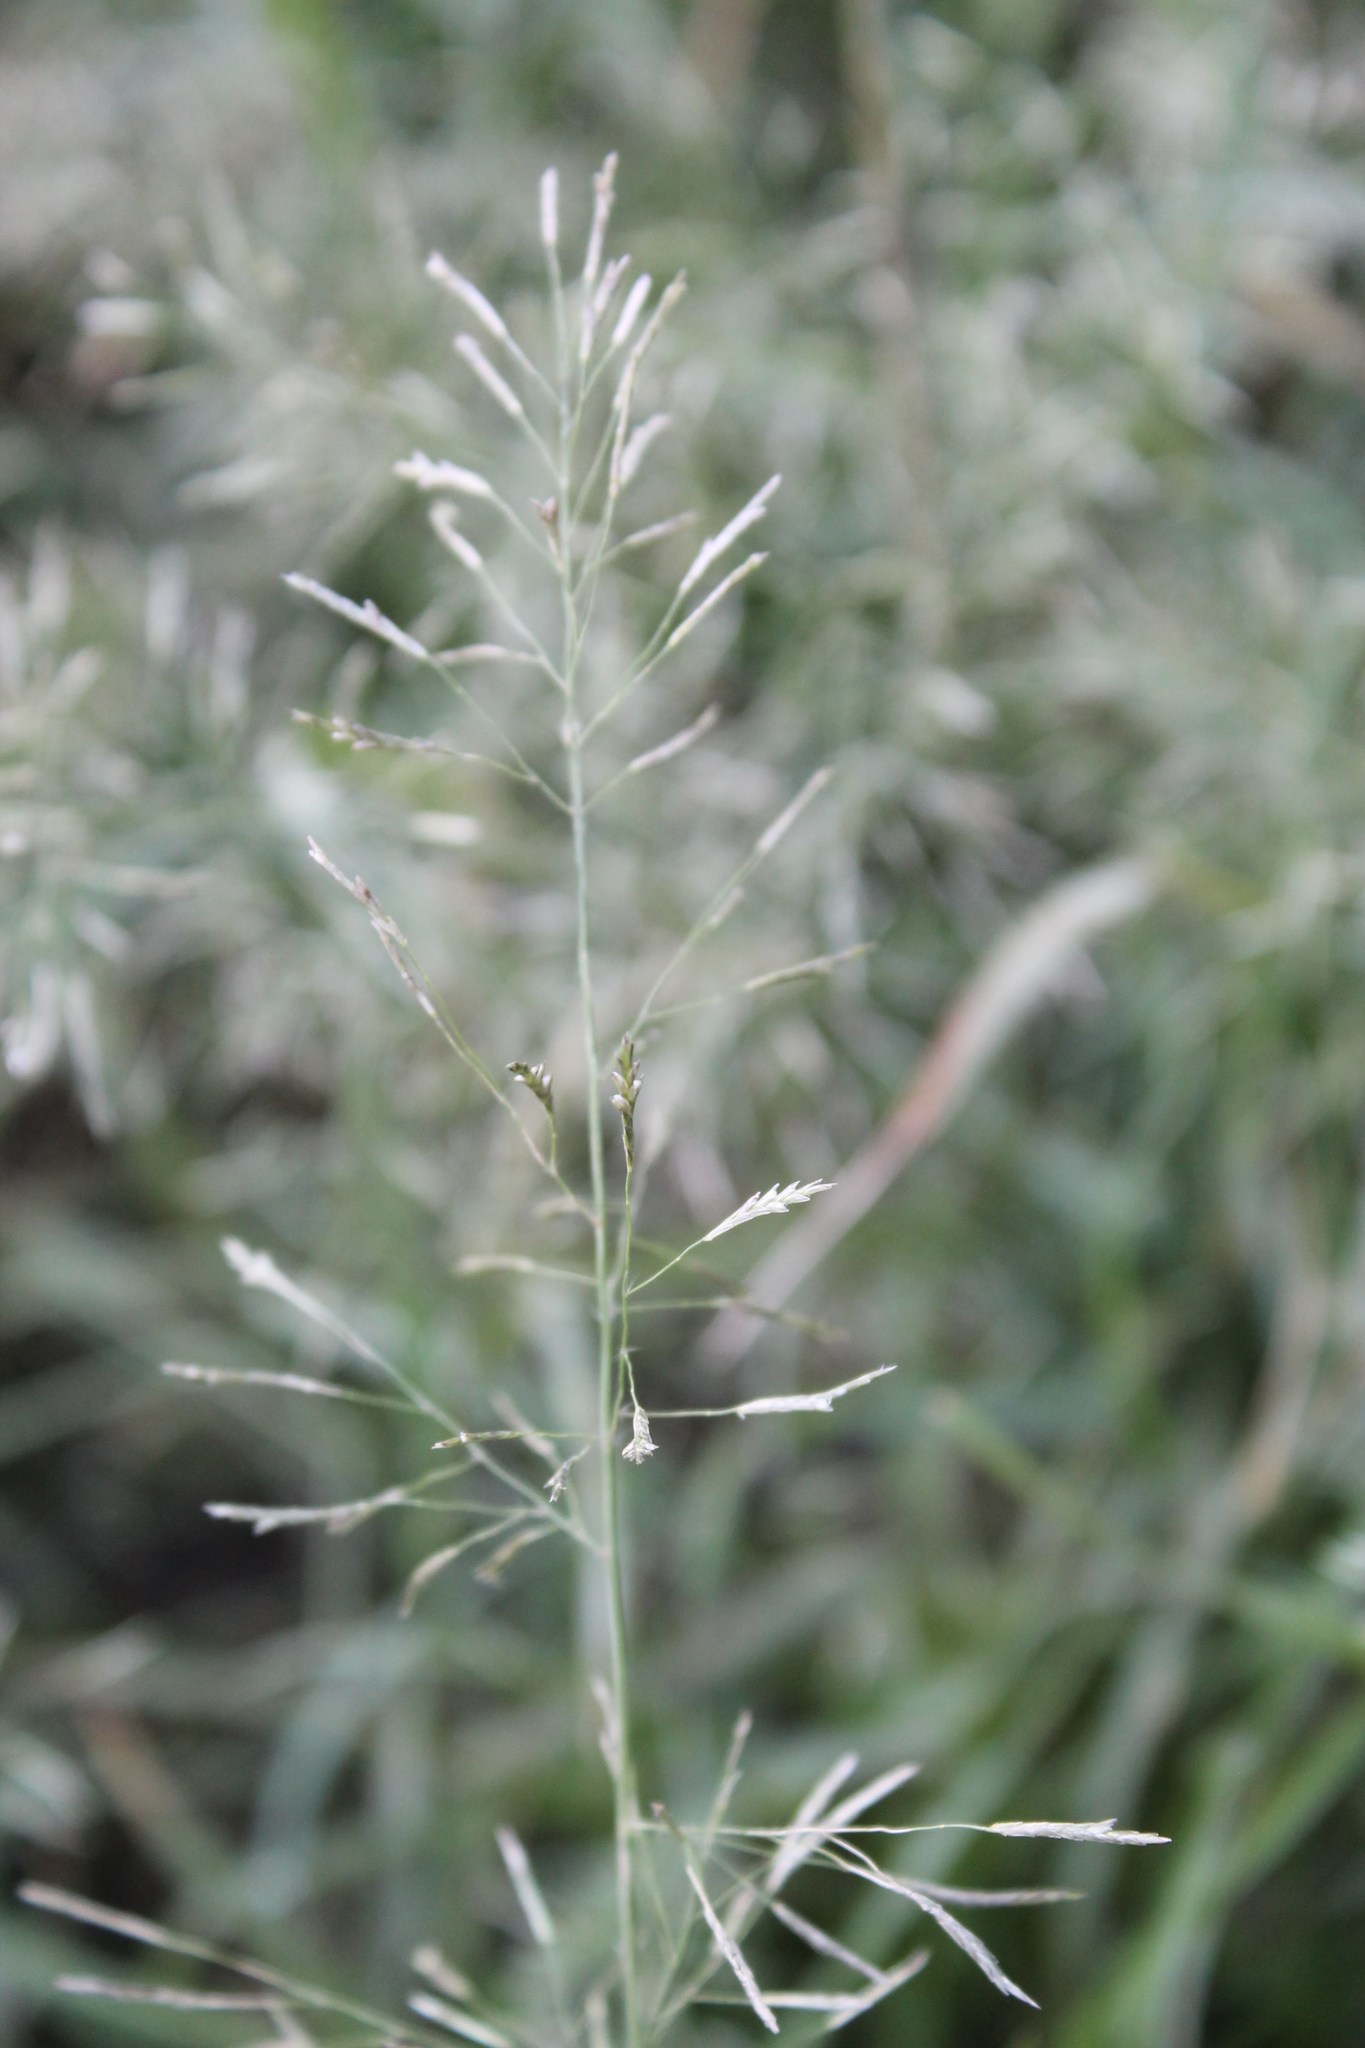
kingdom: Plantae
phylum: Tracheophyta
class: Liliopsida
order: Poales
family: Poaceae
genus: Eragrostis
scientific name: Eragrostis tenuifolia
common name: Elastic grass
